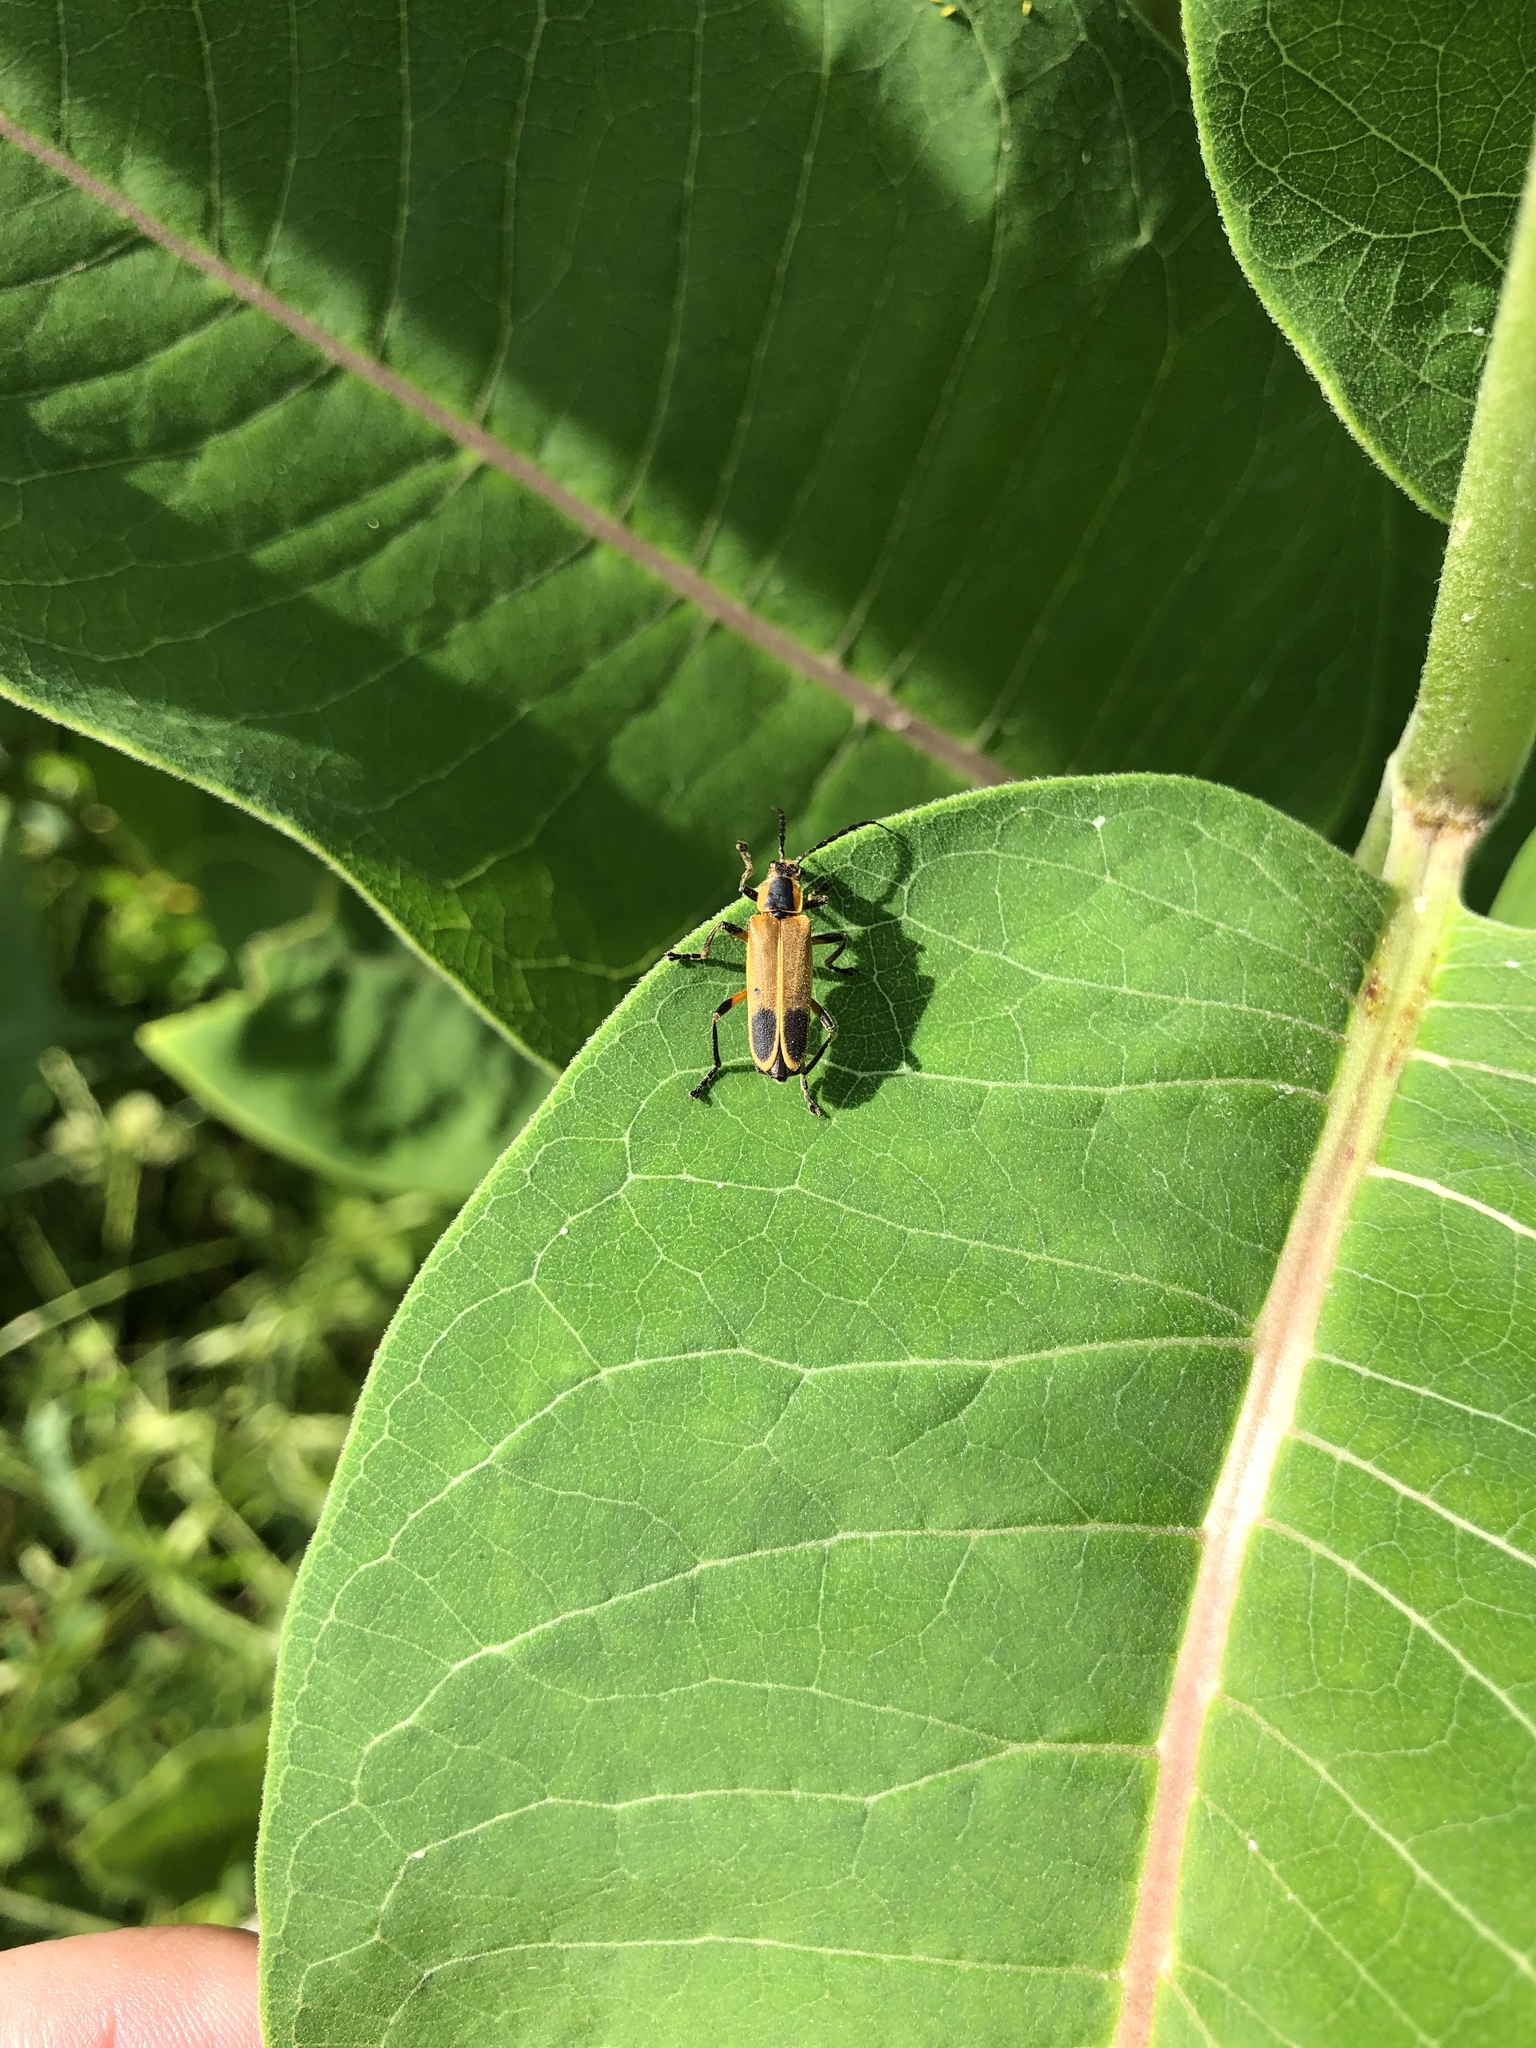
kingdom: Animalia
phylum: Arthropoda
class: Insecta
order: Coleoptera
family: Cantharidae
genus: Chauliognathus
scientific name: Chauliognathus marginatus
